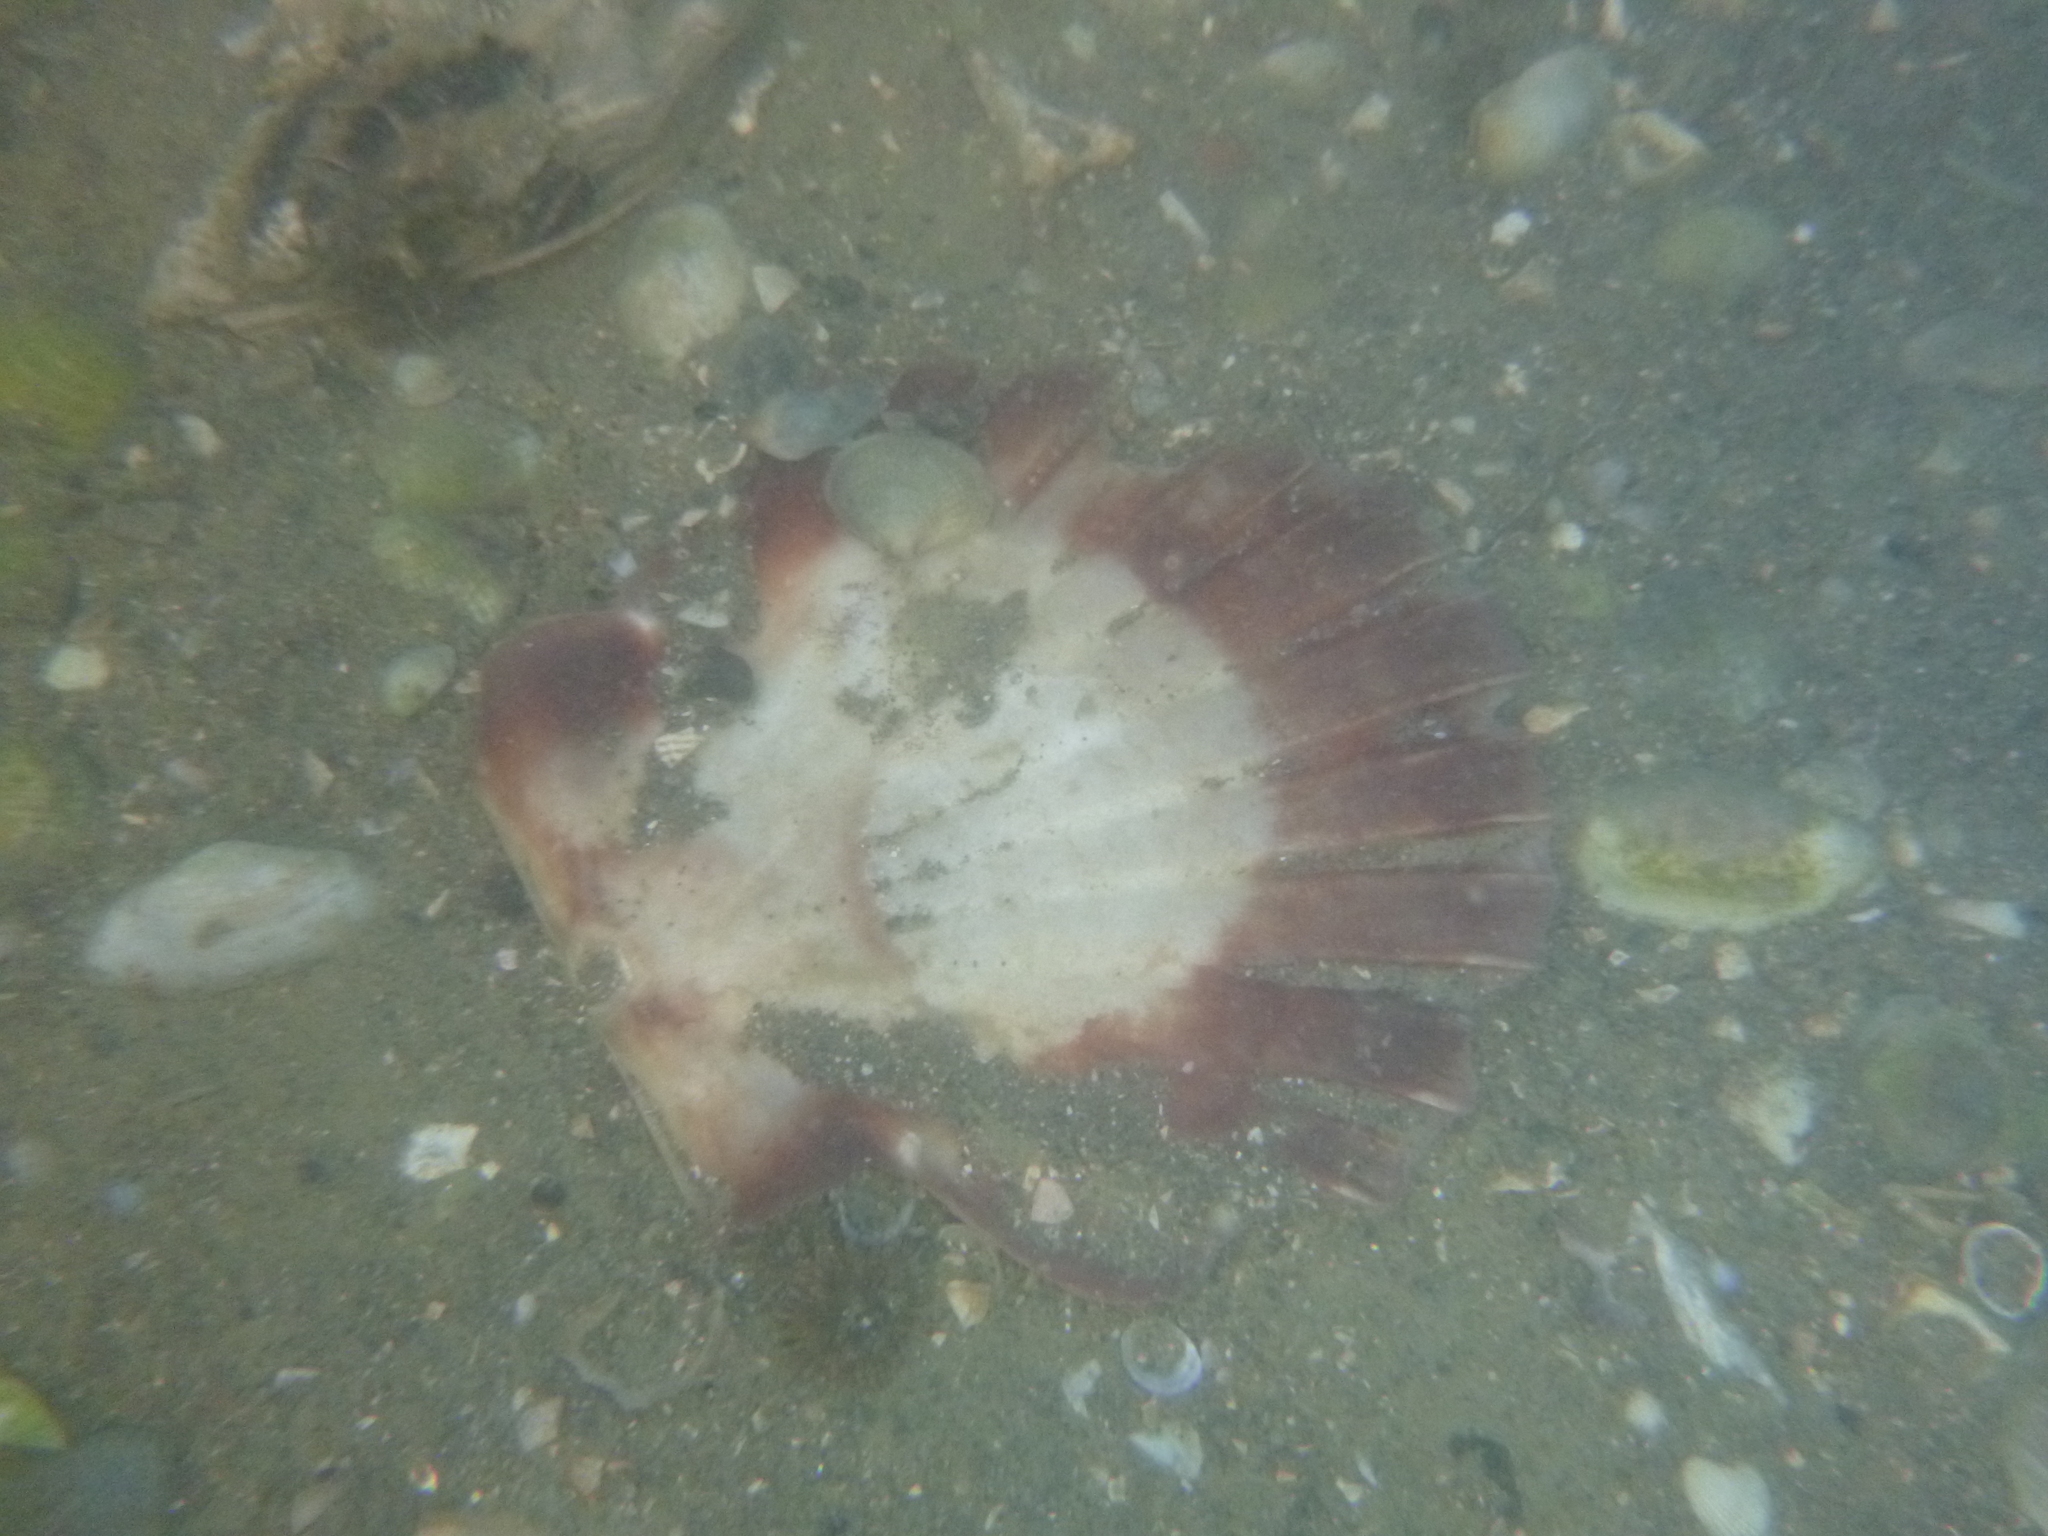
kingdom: Animalia
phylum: Mollusca
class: Bivalvia
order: Pectinida
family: Pectinidae
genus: Pecten
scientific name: Pecten novaezelandiae
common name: New zealand scallop
